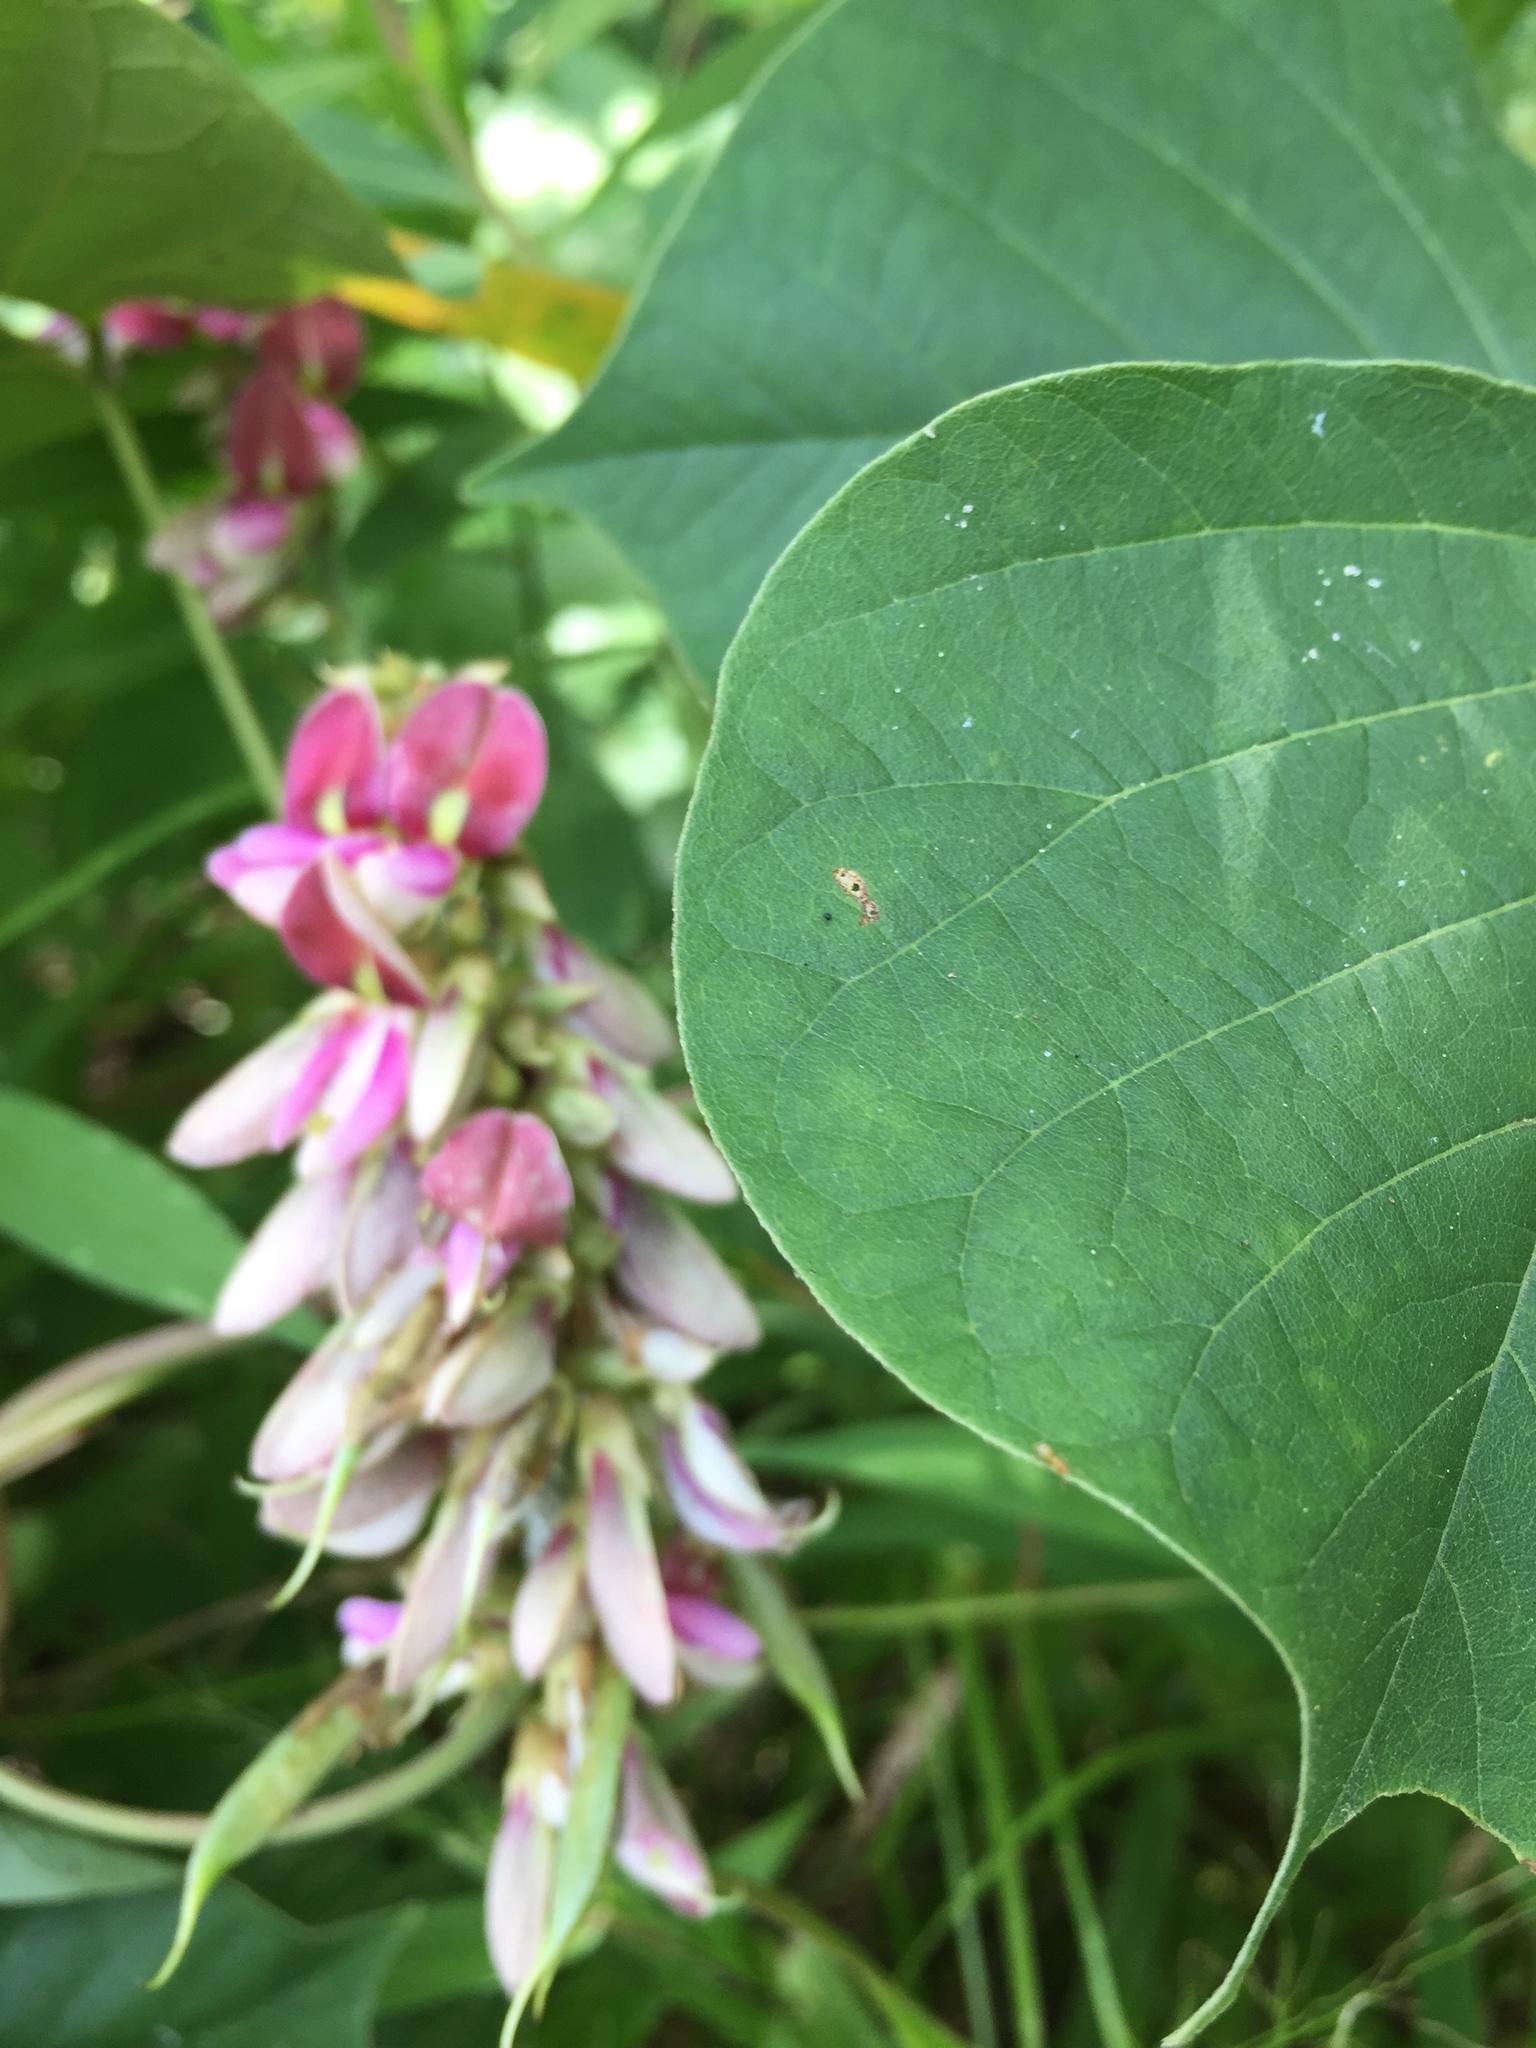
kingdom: Plantae
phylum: Tracheophyta
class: Magnoliopsida
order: Fabales
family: Fabaceae
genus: Lackeya
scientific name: Lackeya multiflora
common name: Boykin's clusterpea
